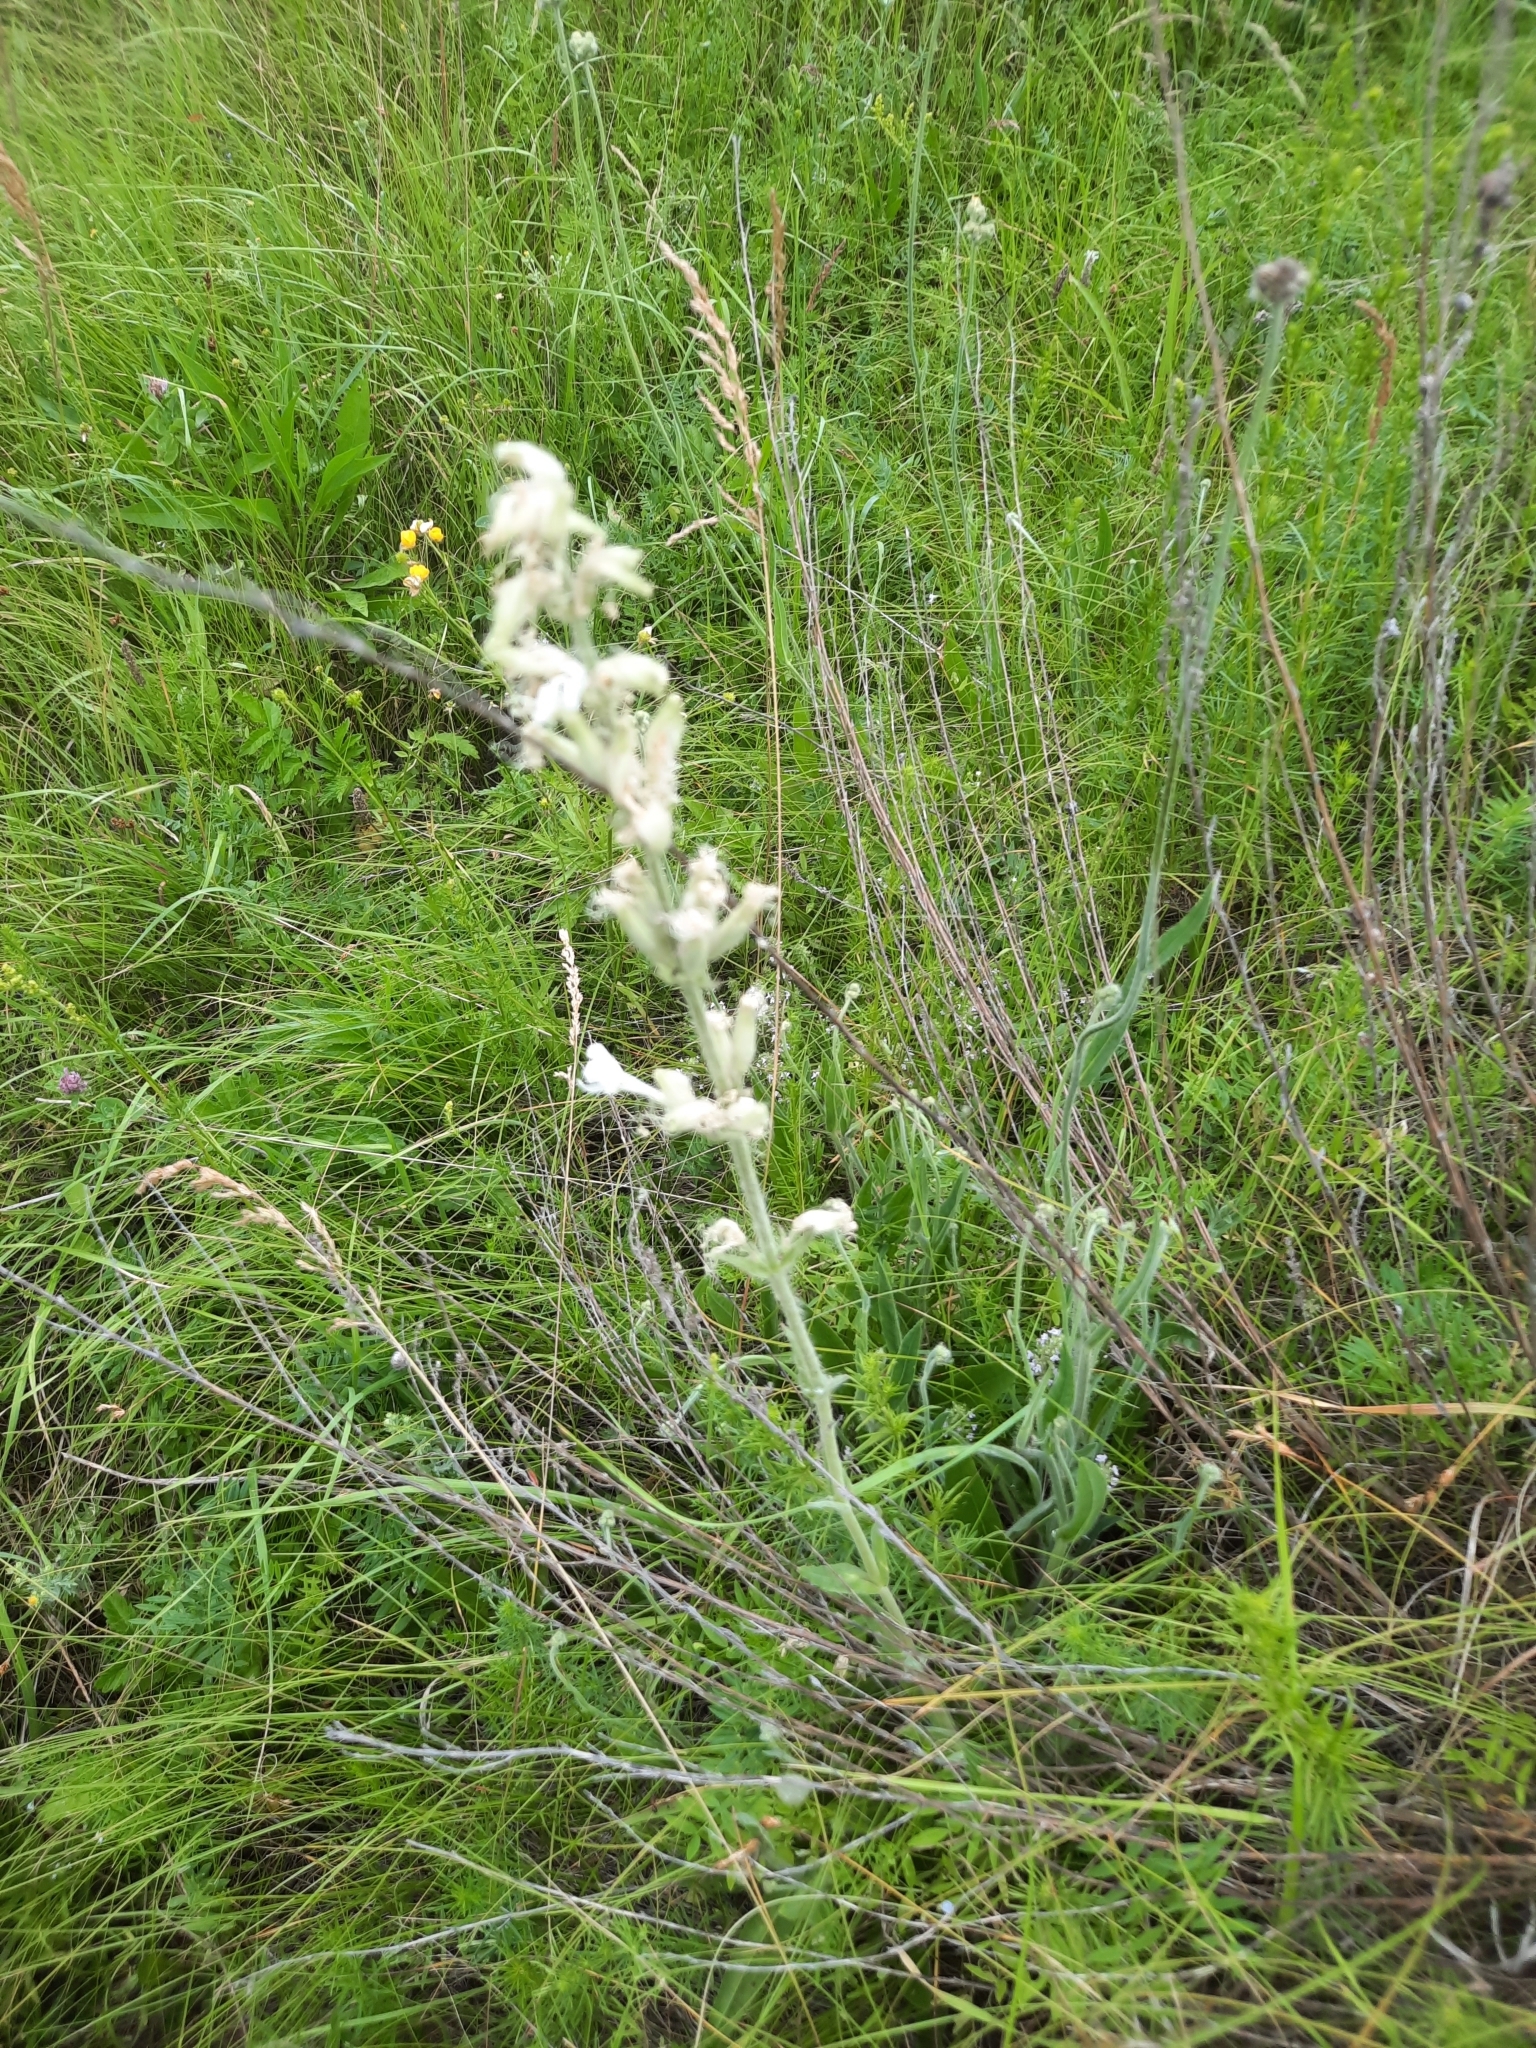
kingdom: Plantae
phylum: Tracheophyta
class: Magnoliopsida
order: Caryophyllales
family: Caryophyllaceae
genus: Silene
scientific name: Silene viscosa
